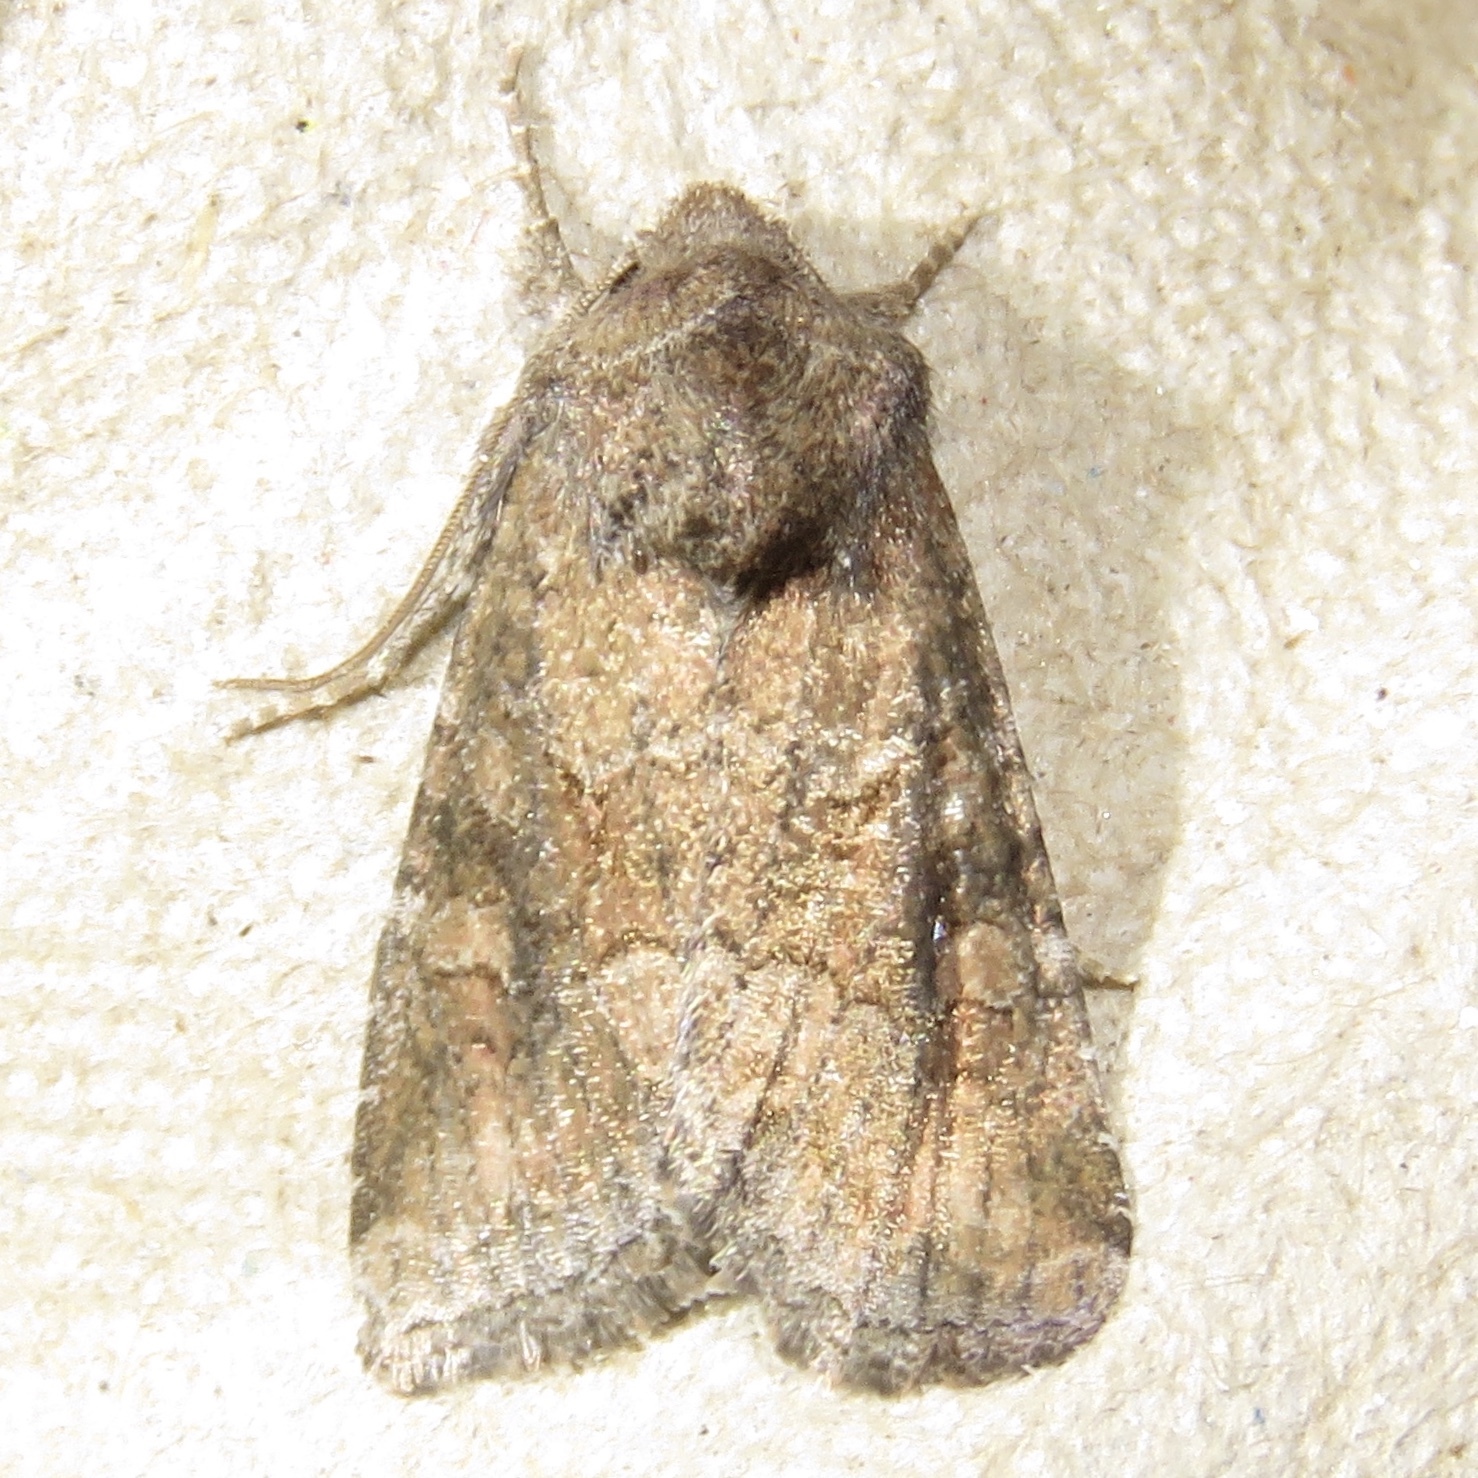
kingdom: Animalia
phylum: Arthropoda
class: Insecta
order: Lepidoptera
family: Noctuidae
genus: Lacinipolia
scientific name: Lacinipolia meditata
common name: Thinker moth
